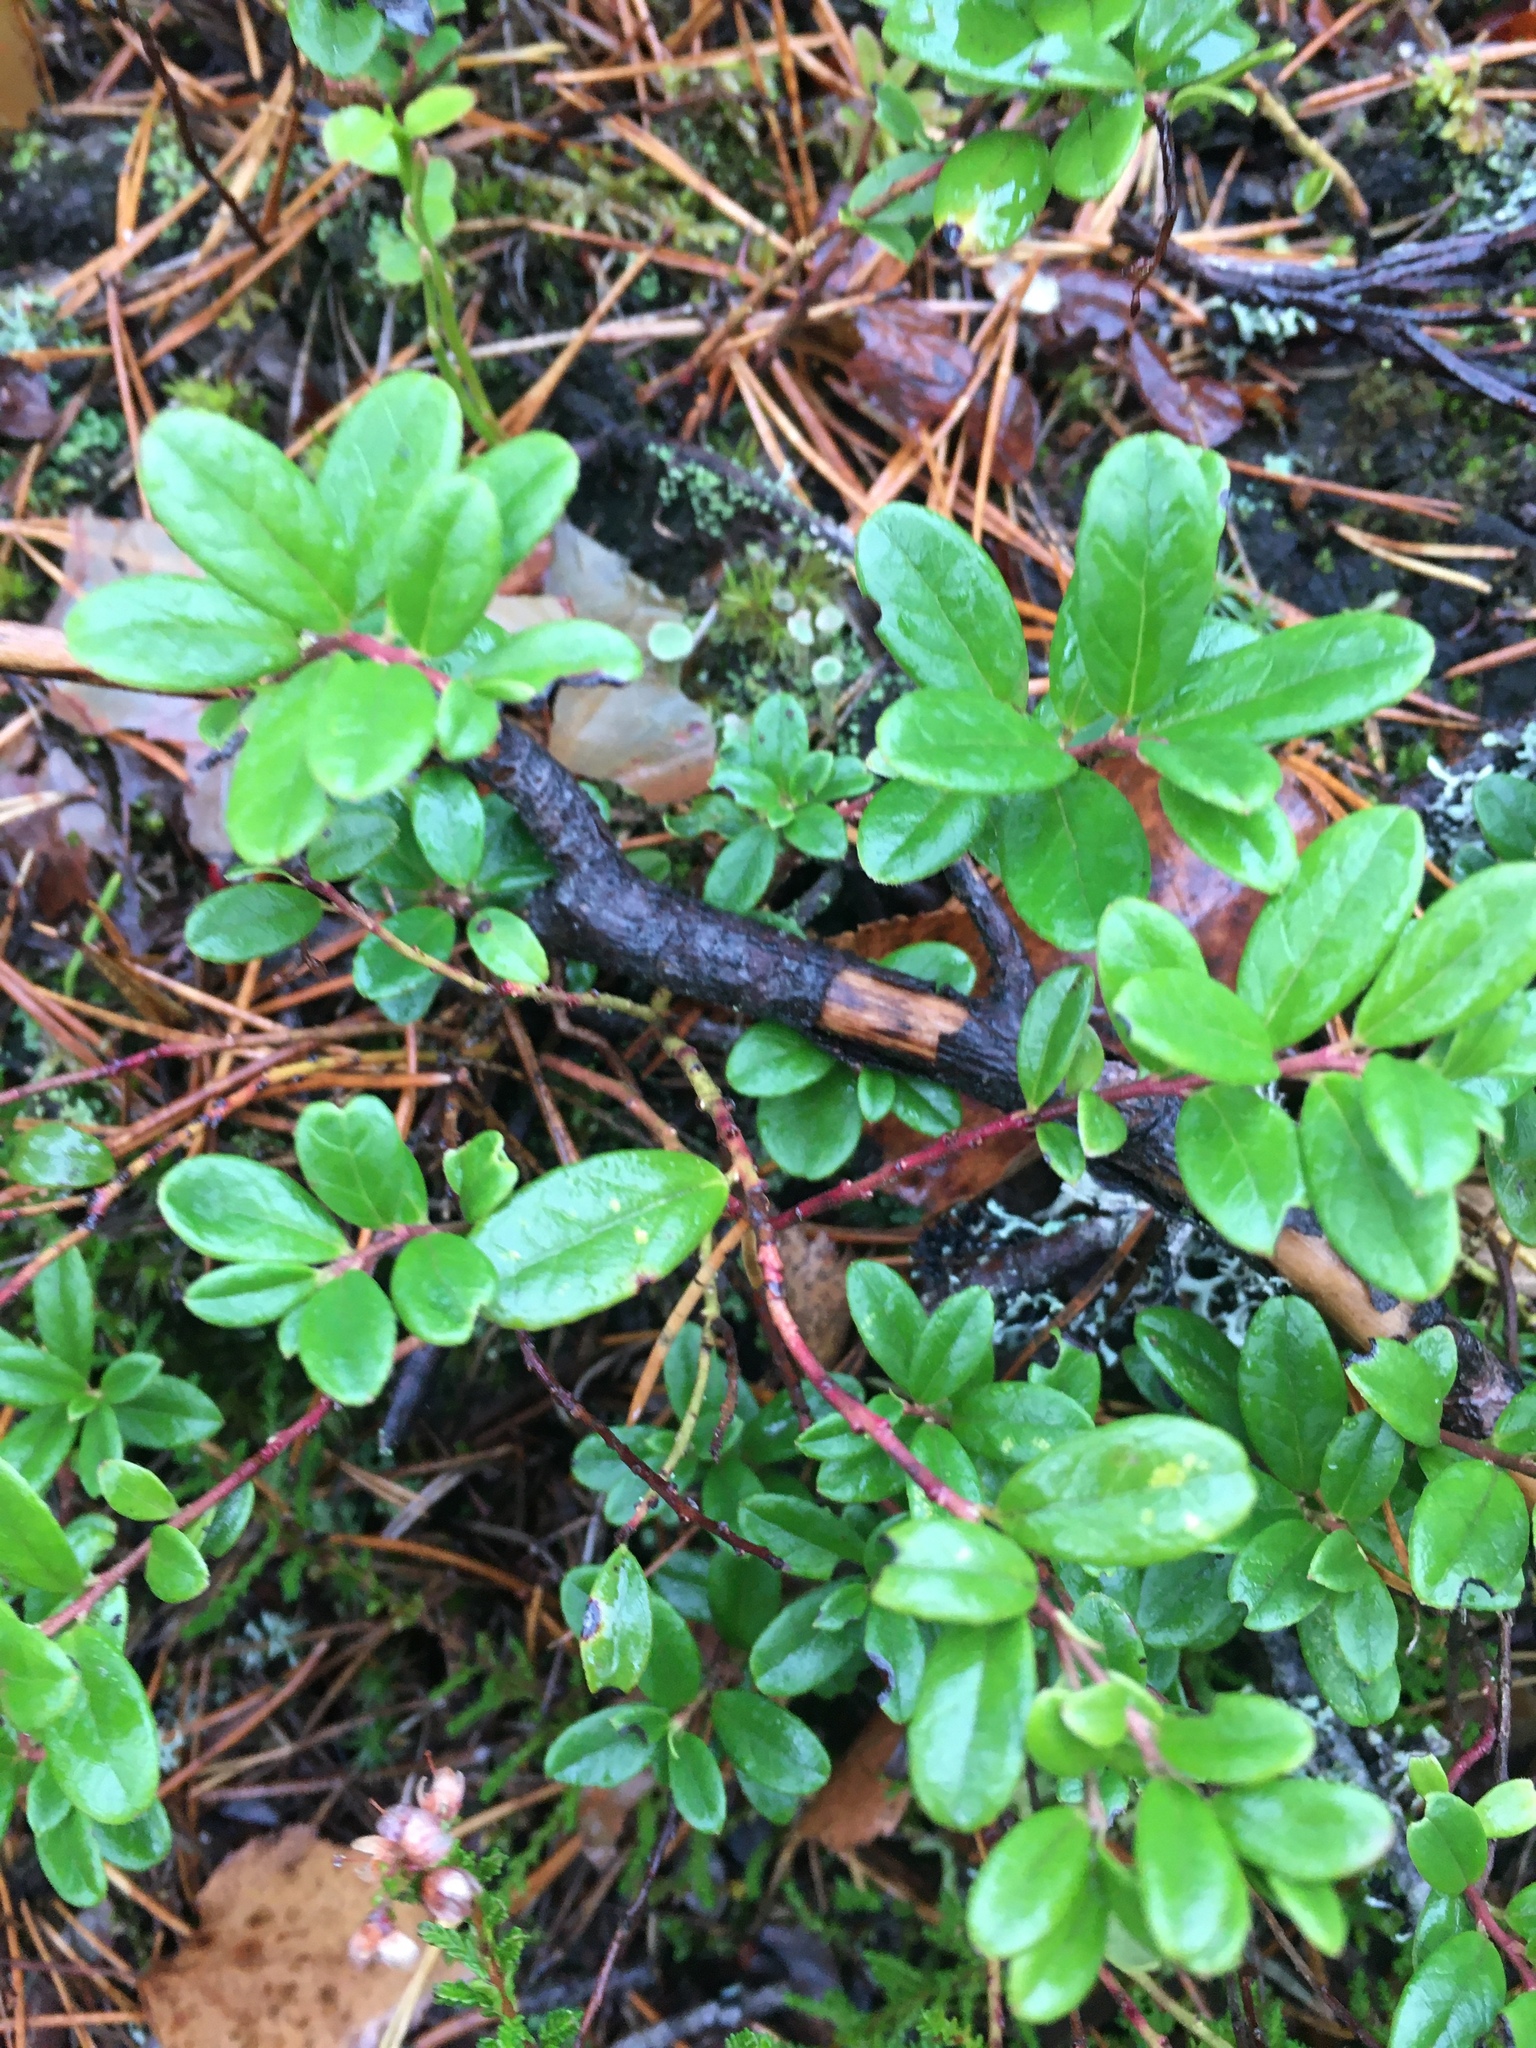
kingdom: Plantae
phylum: Tracheophyta
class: Magnoliopsida
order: Ericales
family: Ericaceae
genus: Vaccinium
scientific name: Vaccinium vitis-idaea
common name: Cowberry
